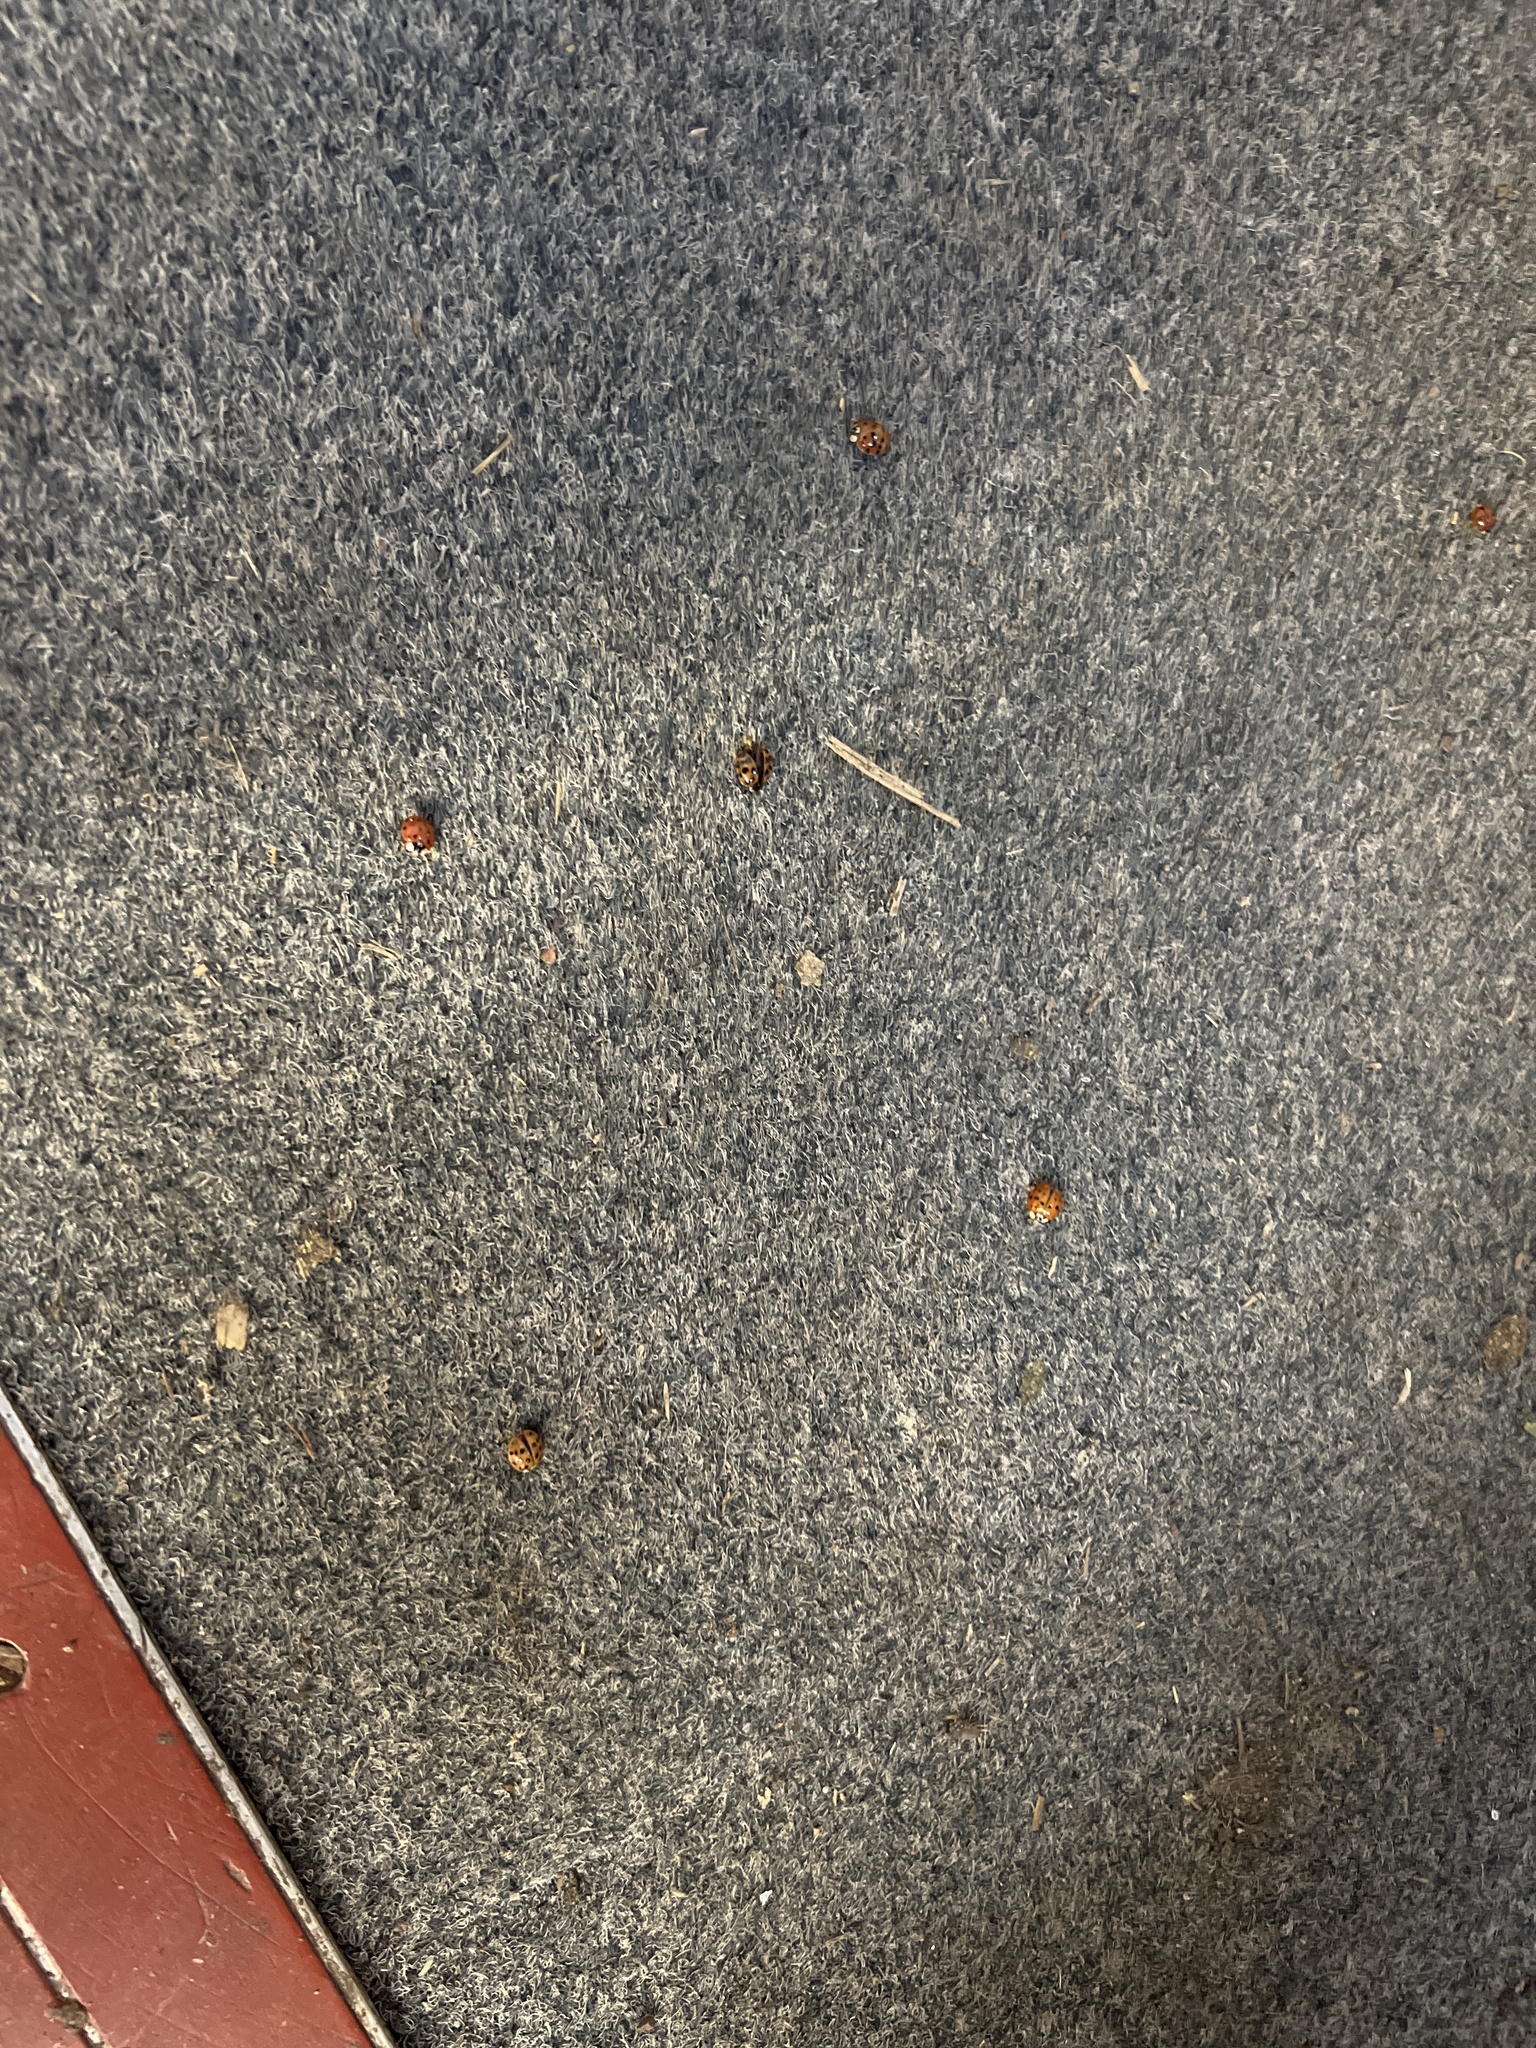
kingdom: Animalia
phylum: Arthropoda
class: Insecta
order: Coleoptera
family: Coccinellidae
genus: Harmonia
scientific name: Harmonia axyridis
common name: Harlequin ladybird
